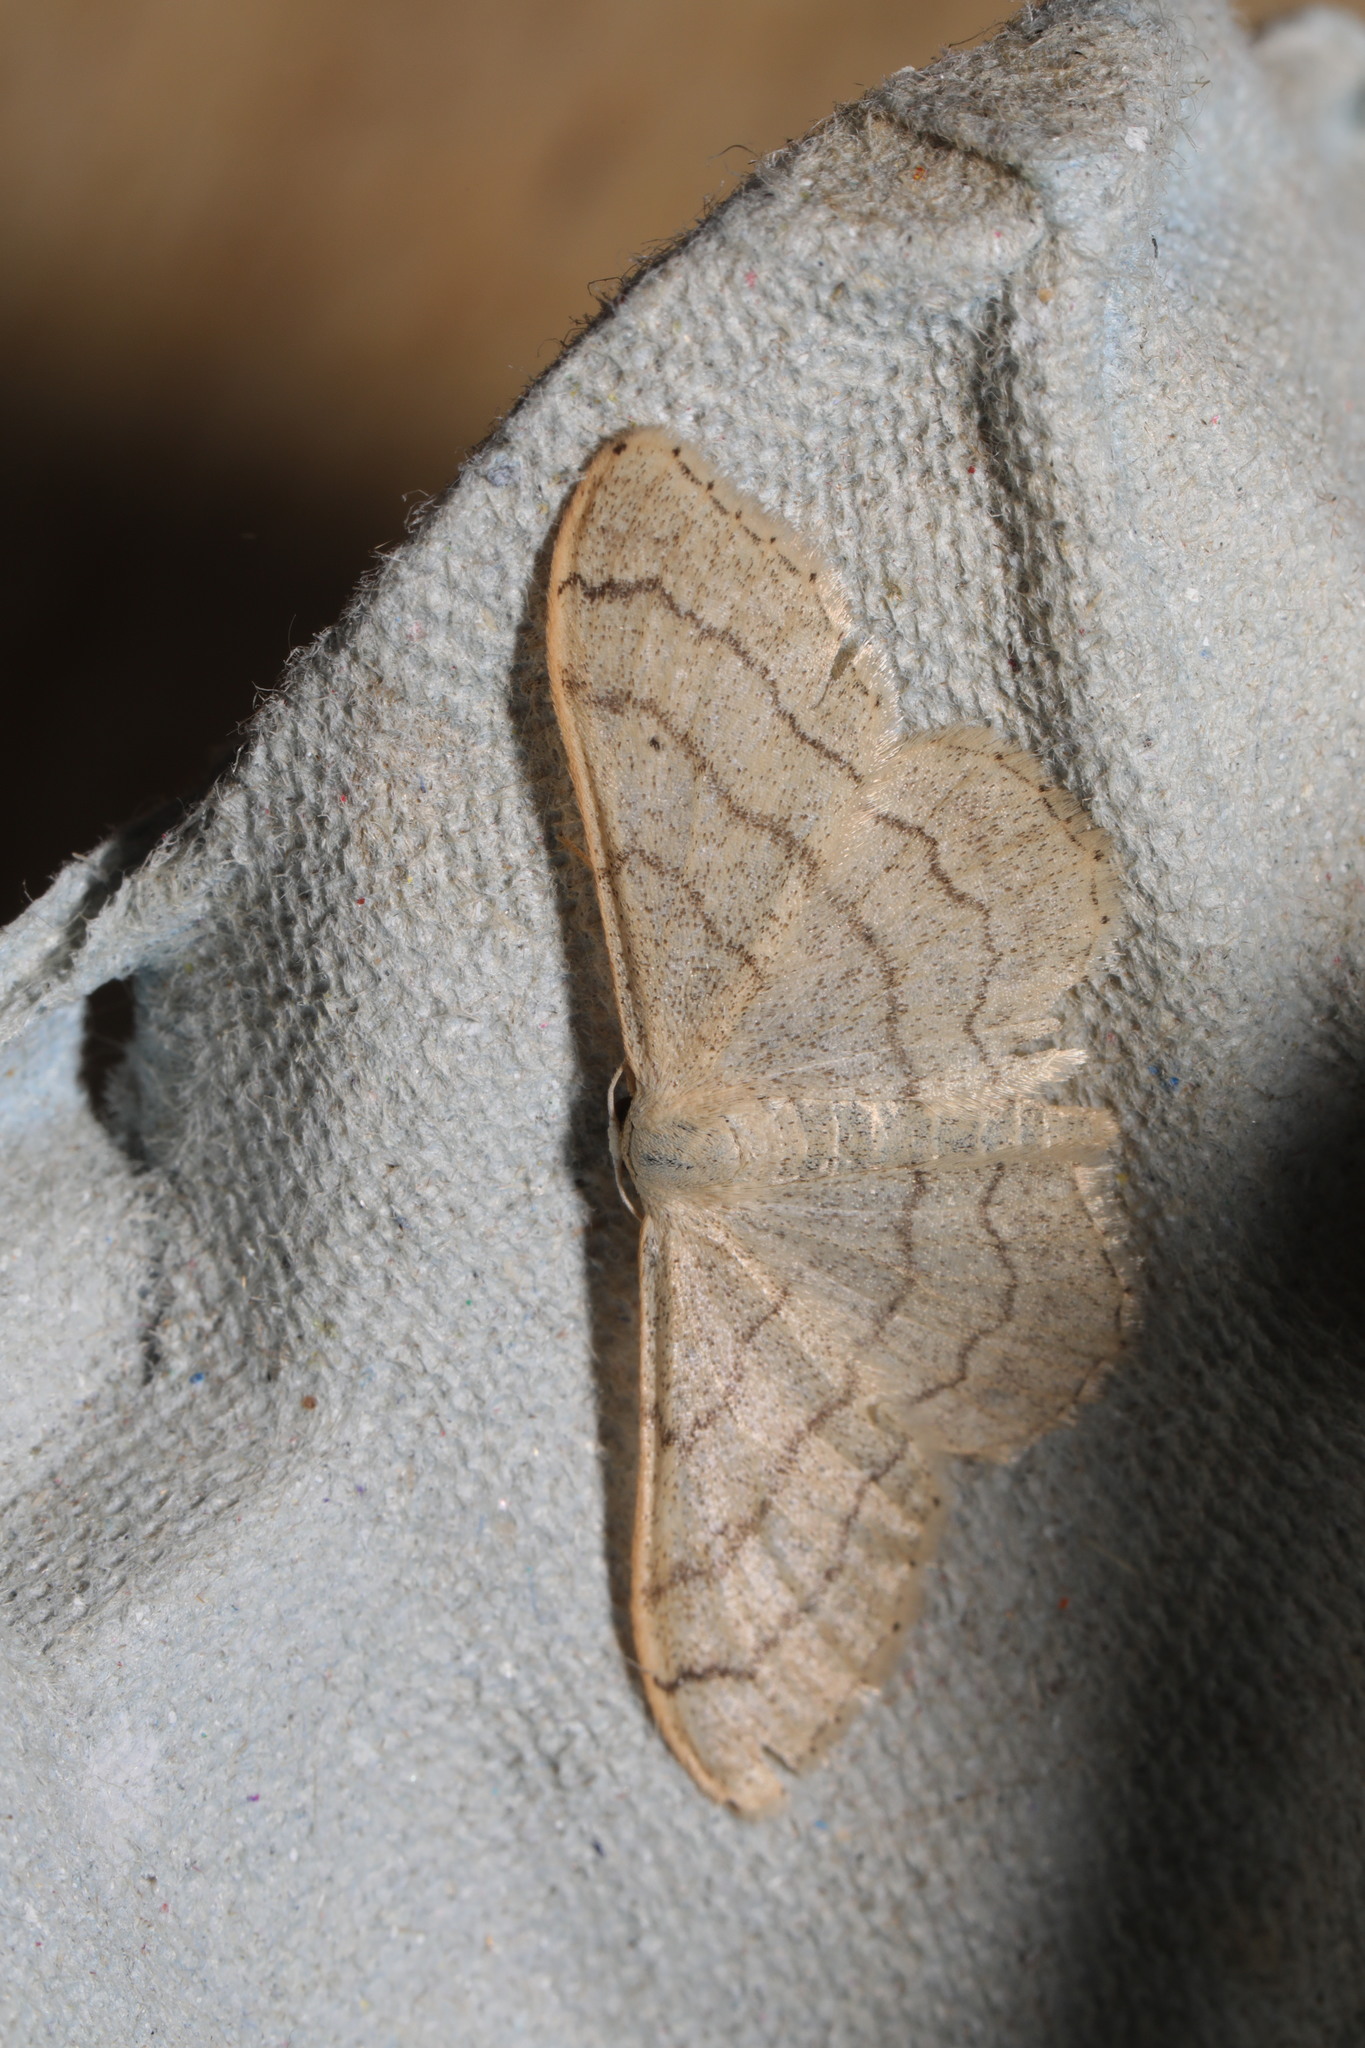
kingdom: Animalia
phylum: Arthropoda
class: Insecta
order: Lepidoptera
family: Geometridae
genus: Idaea
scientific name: Idaea aversata
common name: Riband wave
